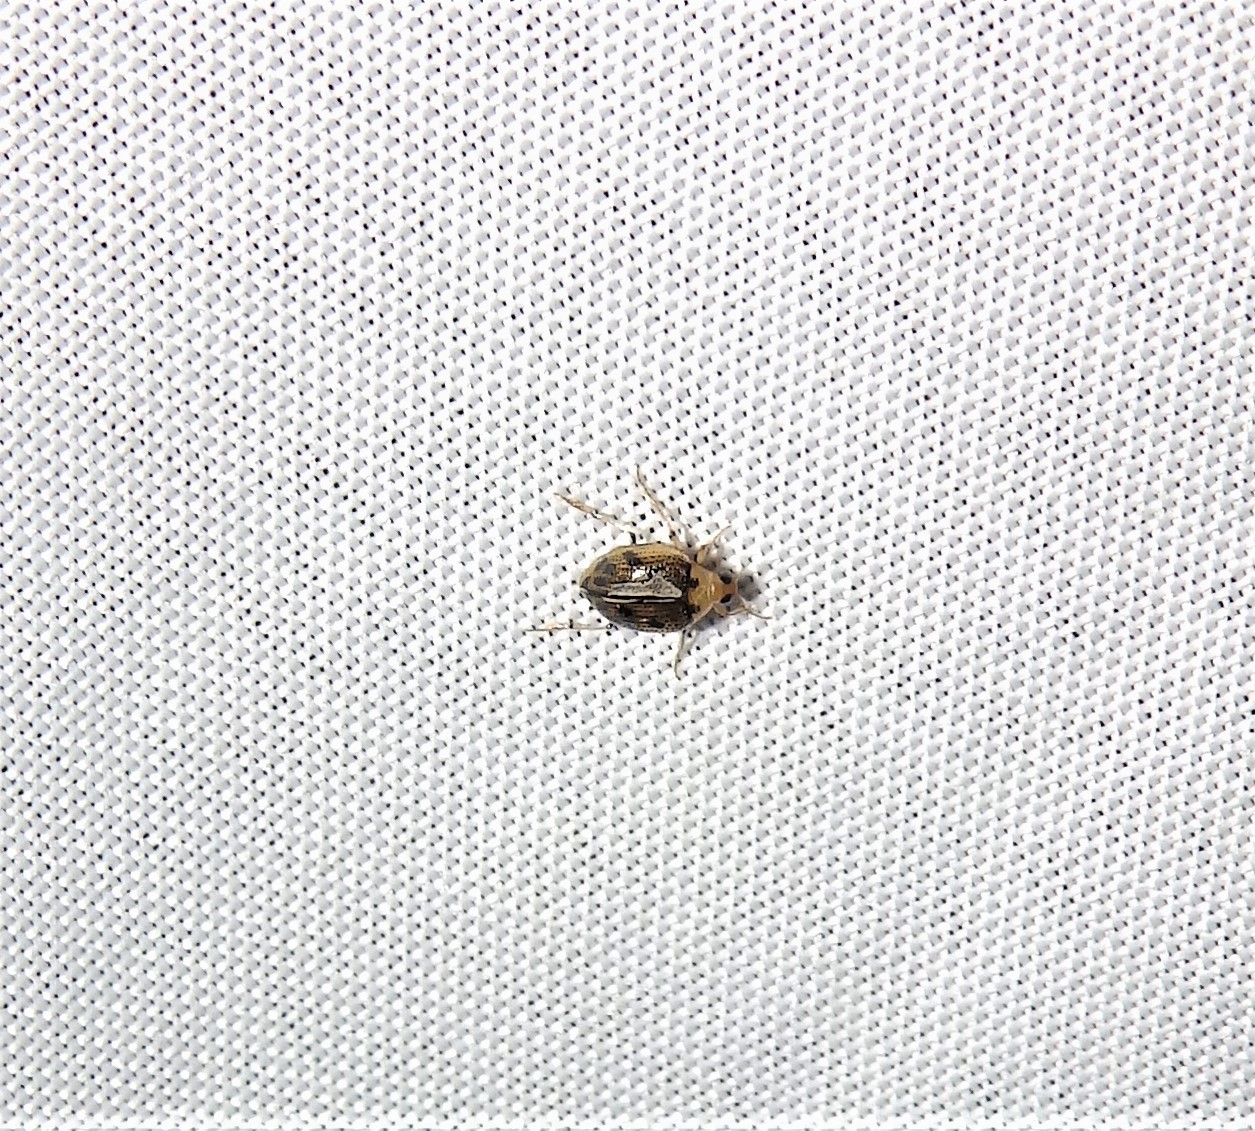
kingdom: Animalia
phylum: Arthropoda
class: Insecta
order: Coleoptera
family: Haliplidae
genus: Peltodytes
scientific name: Peltodytes
